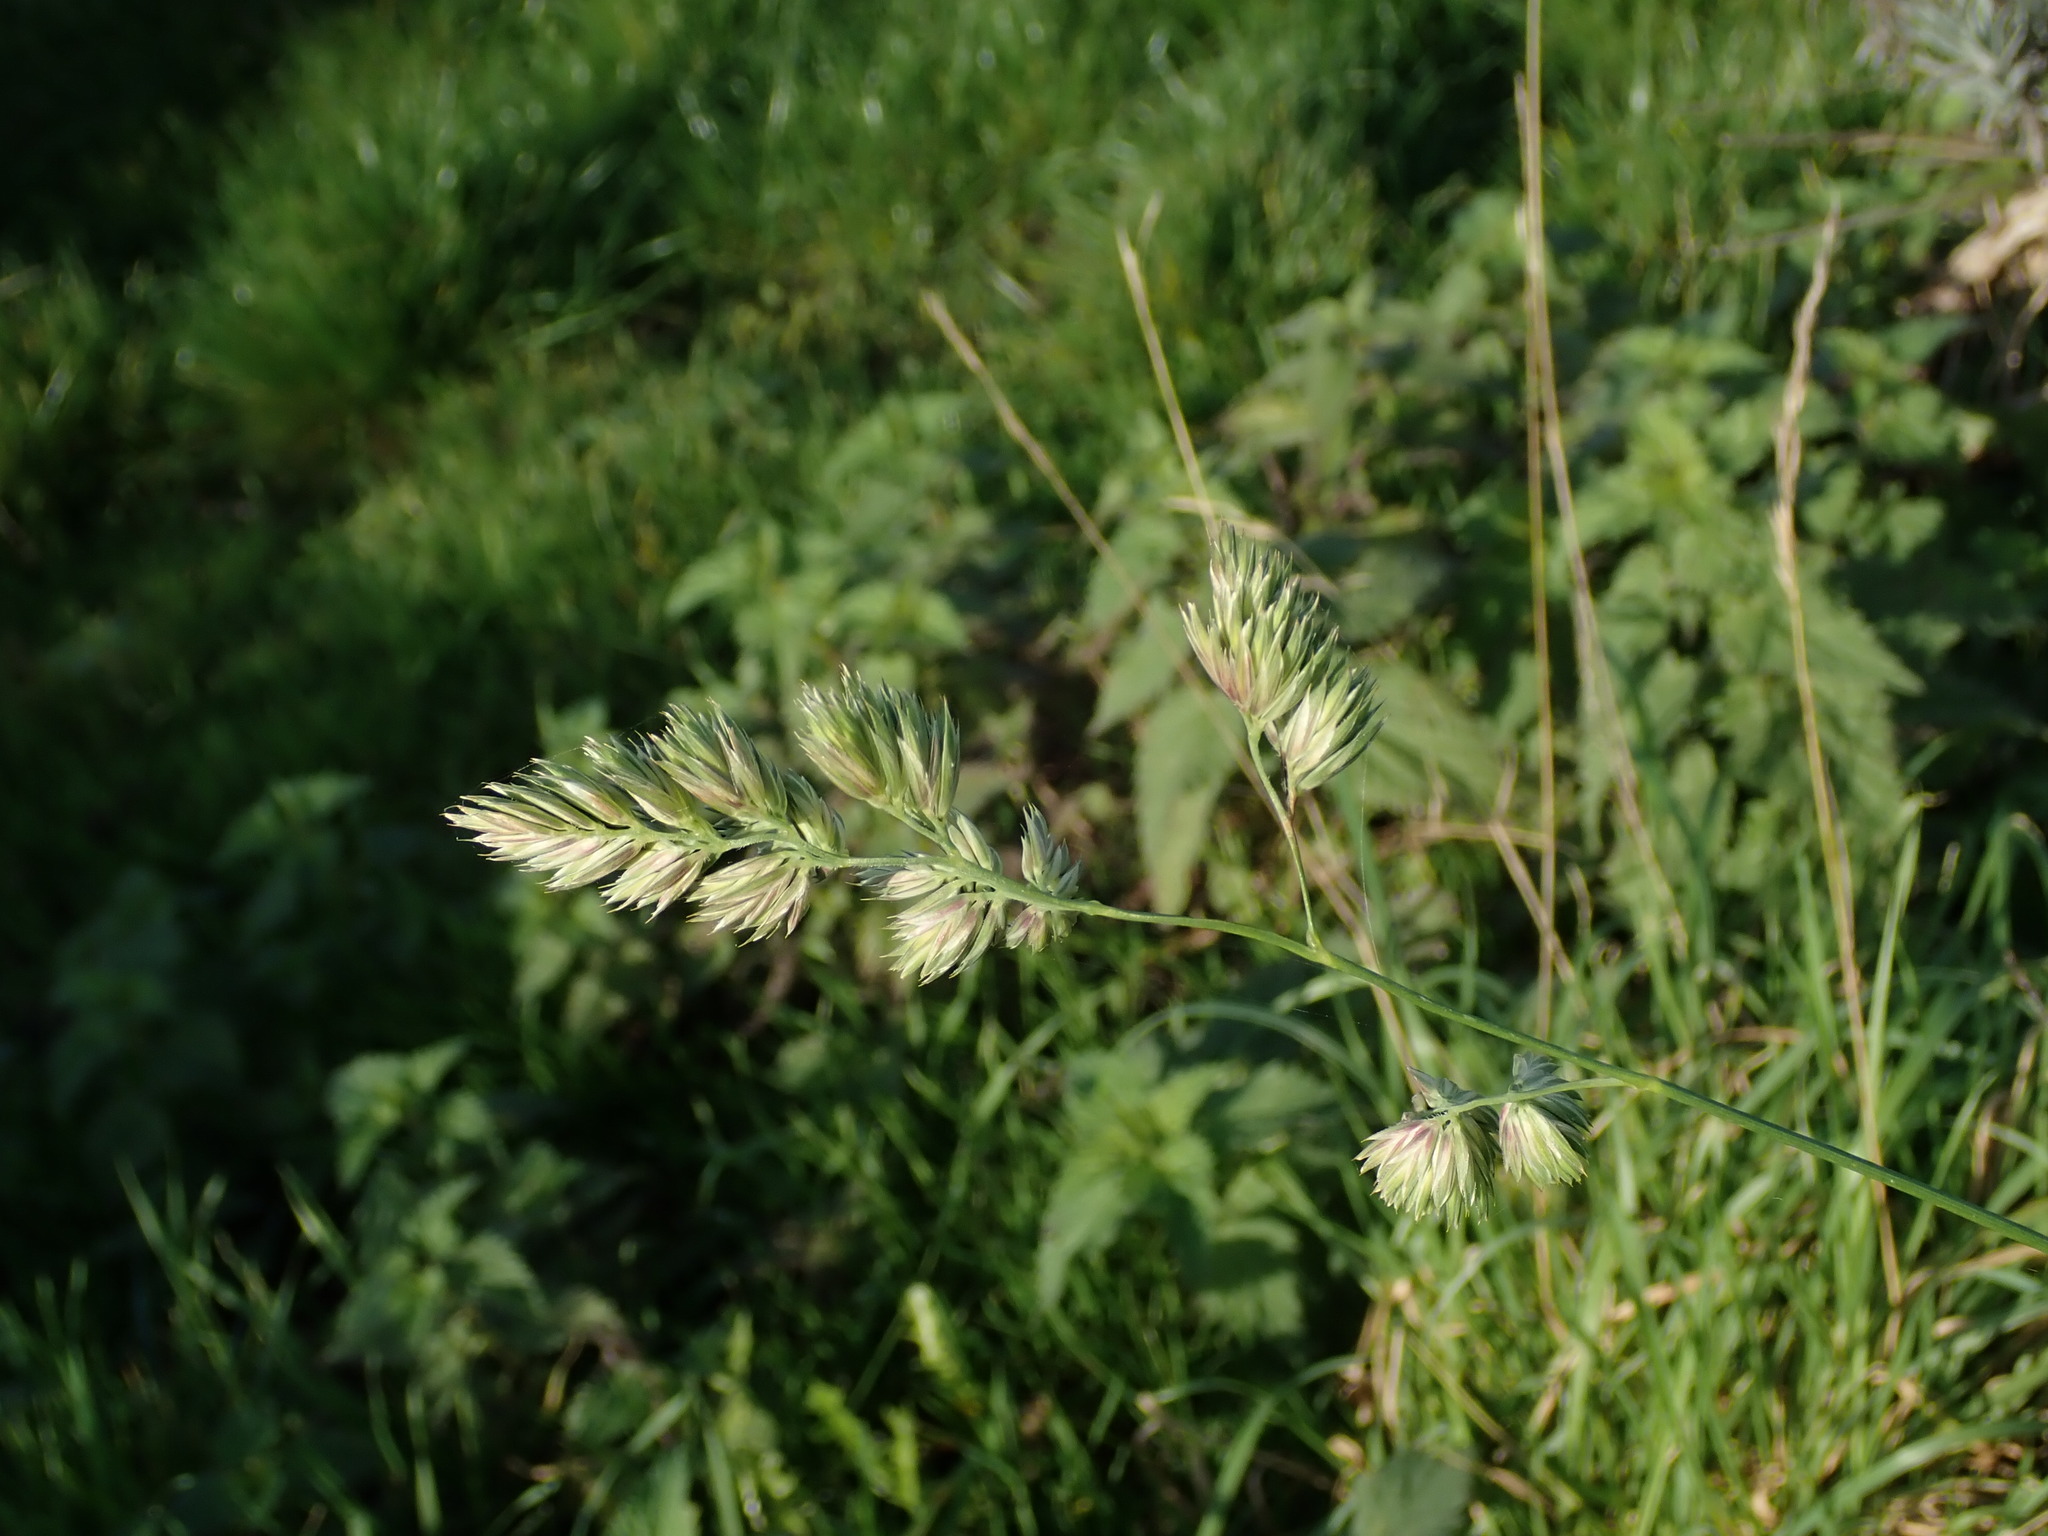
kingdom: Plantae
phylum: Tracheophyta
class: Liliopsida
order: Poales
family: Poaceae
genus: Dactylis
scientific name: Dactylis glomerata
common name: Orchardgrass
